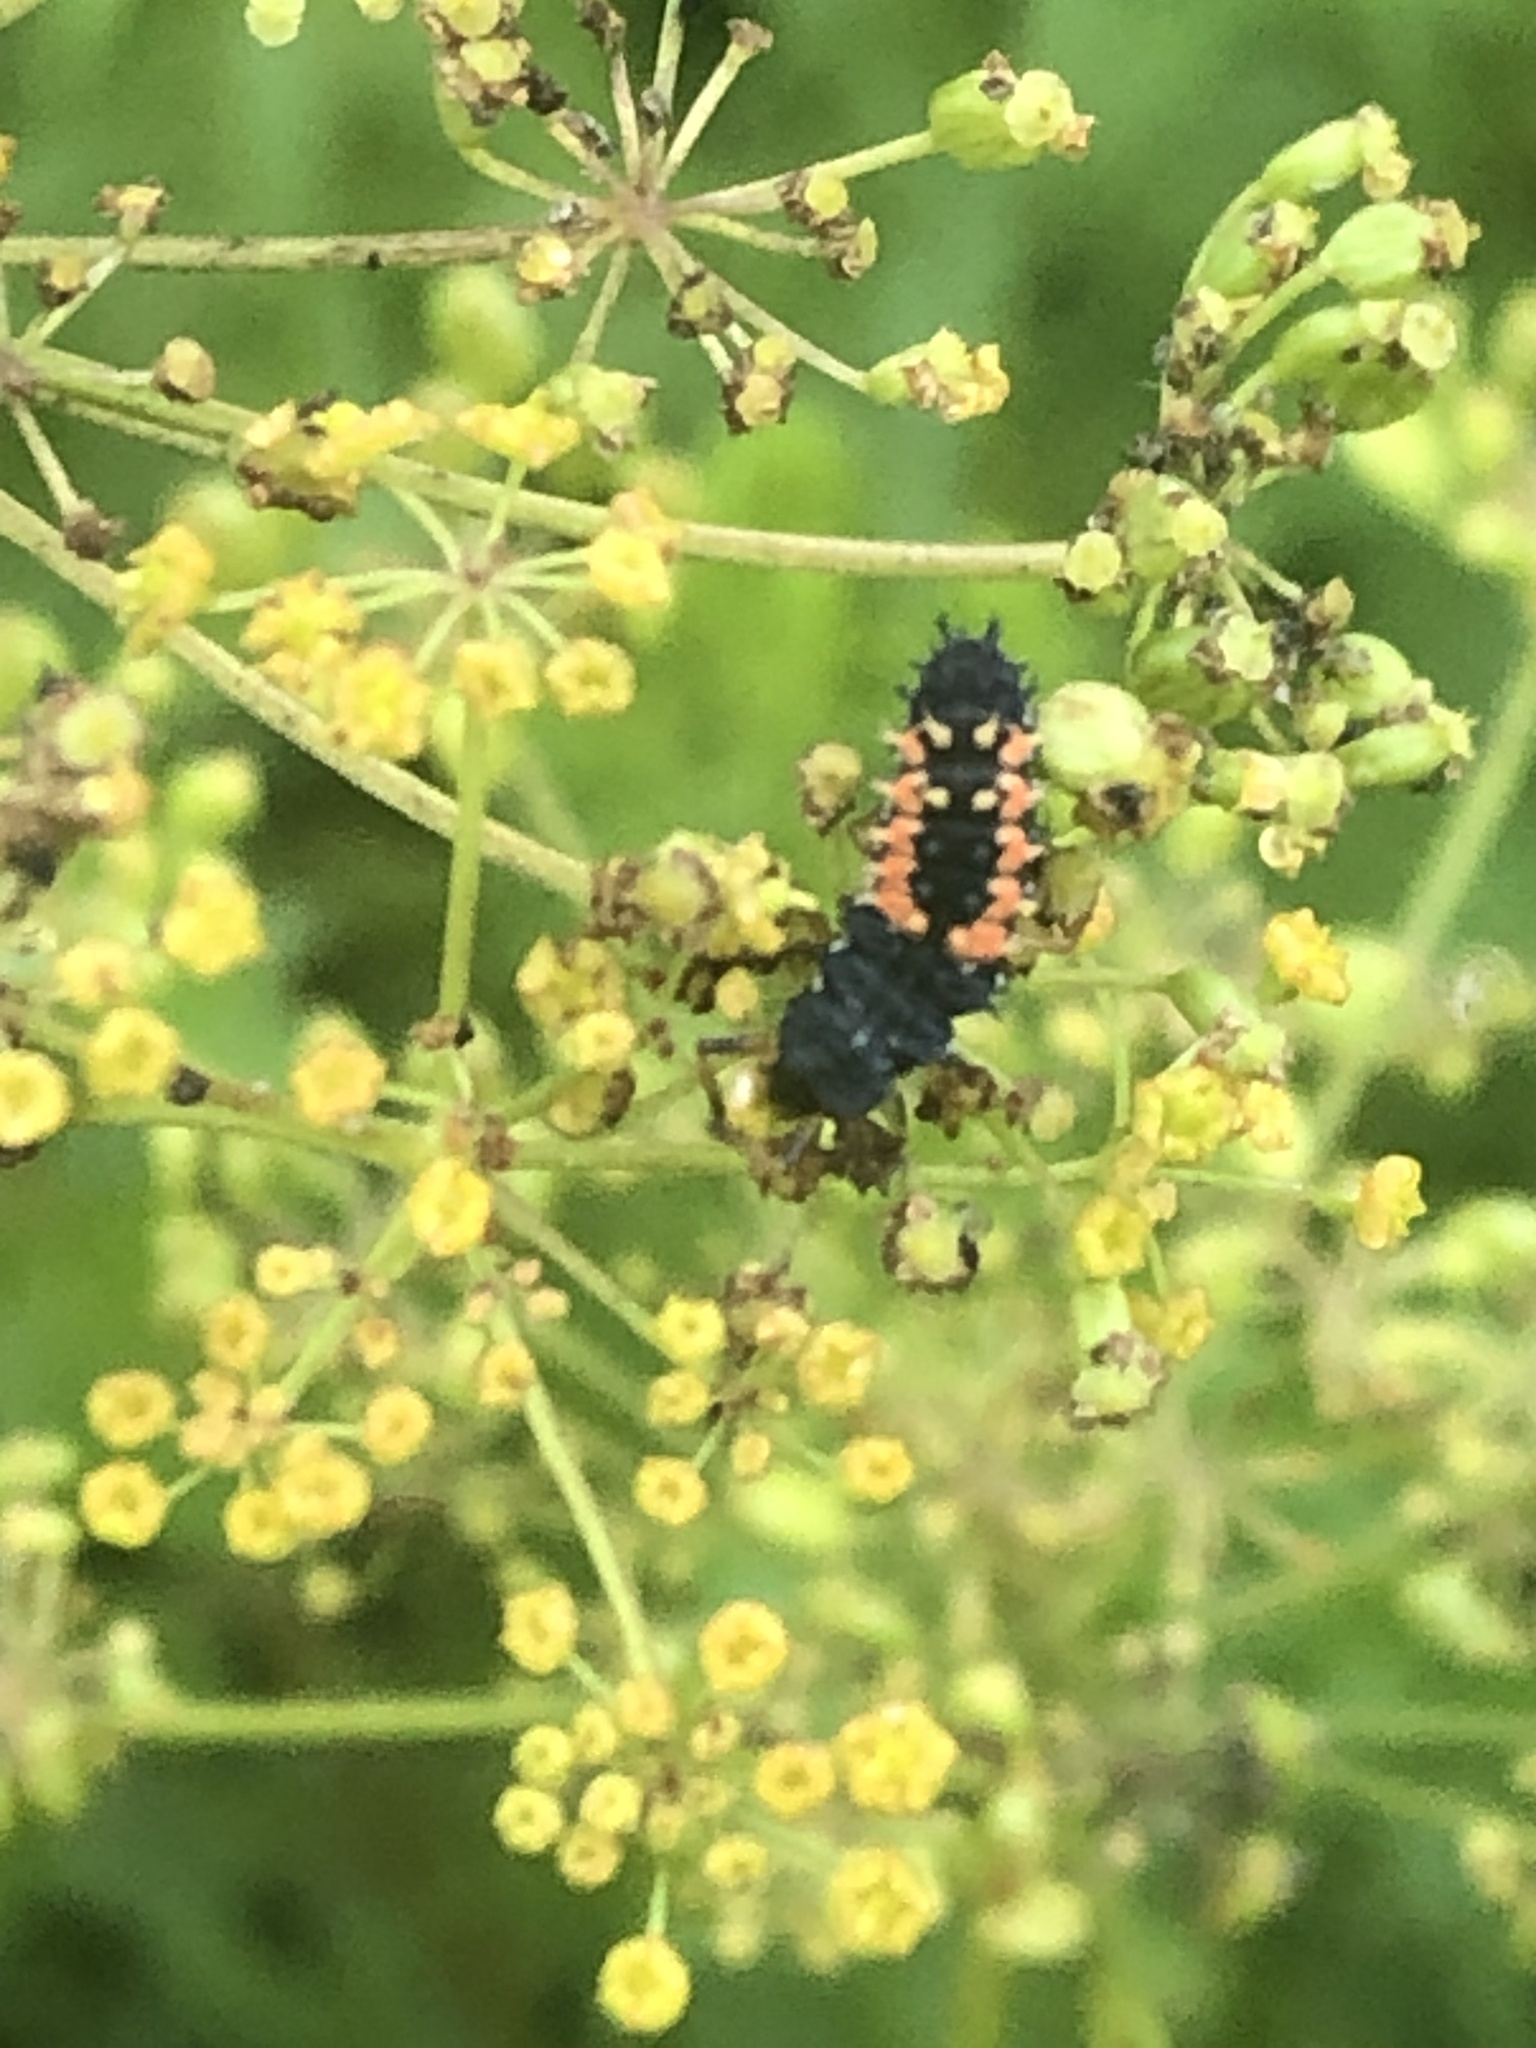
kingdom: Animalia
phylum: Arthropoda
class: Insecta
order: Coleoptera
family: Coccinellidae
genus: Harmonia
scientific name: Harmonia axyridis
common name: Harlequin ladybird
